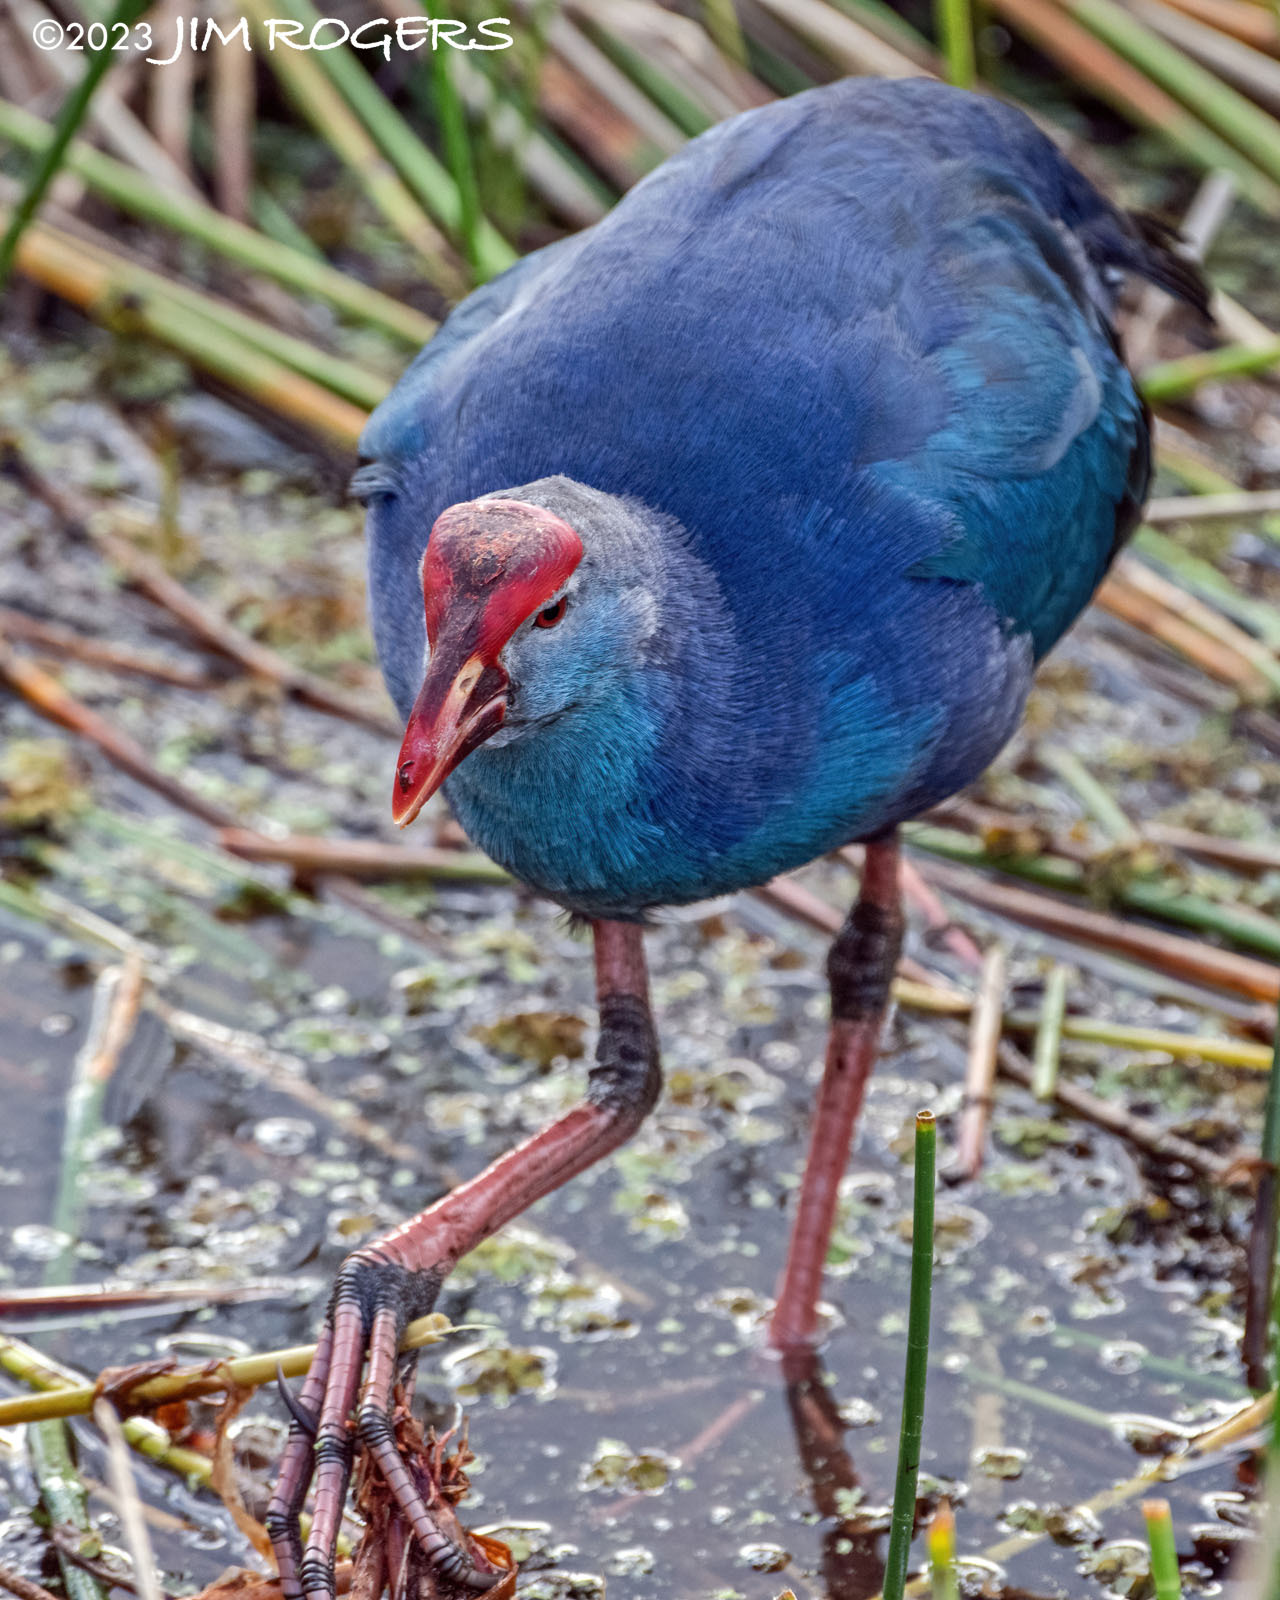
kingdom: Animalia
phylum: Chordata
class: Aves
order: Gruiformes
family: Rallidae
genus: Porphyrio
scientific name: Porphyrio porphyrio
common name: Purple swamphen
